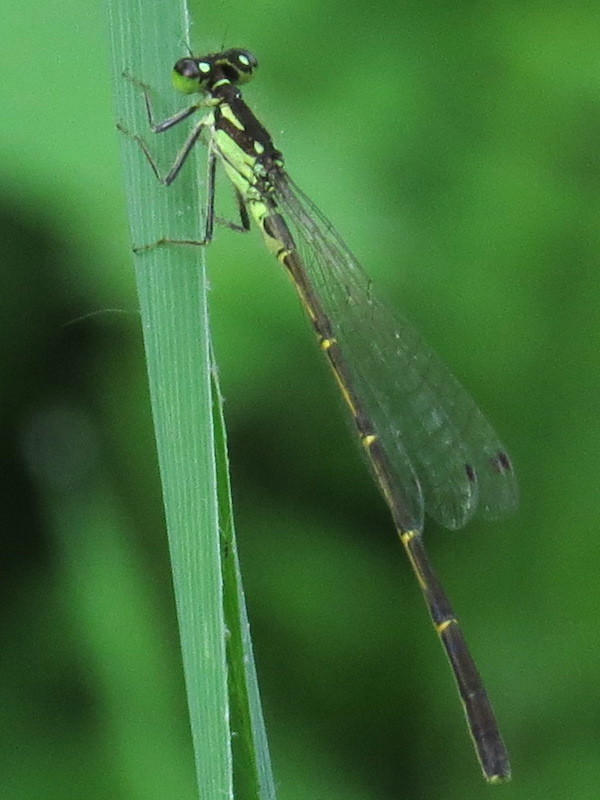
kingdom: Animalia
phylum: Arthropoda
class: Insecta
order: Odonata
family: Coenagrionidae
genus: Ischnura
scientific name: Ischnura posita
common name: Fragile forktail
